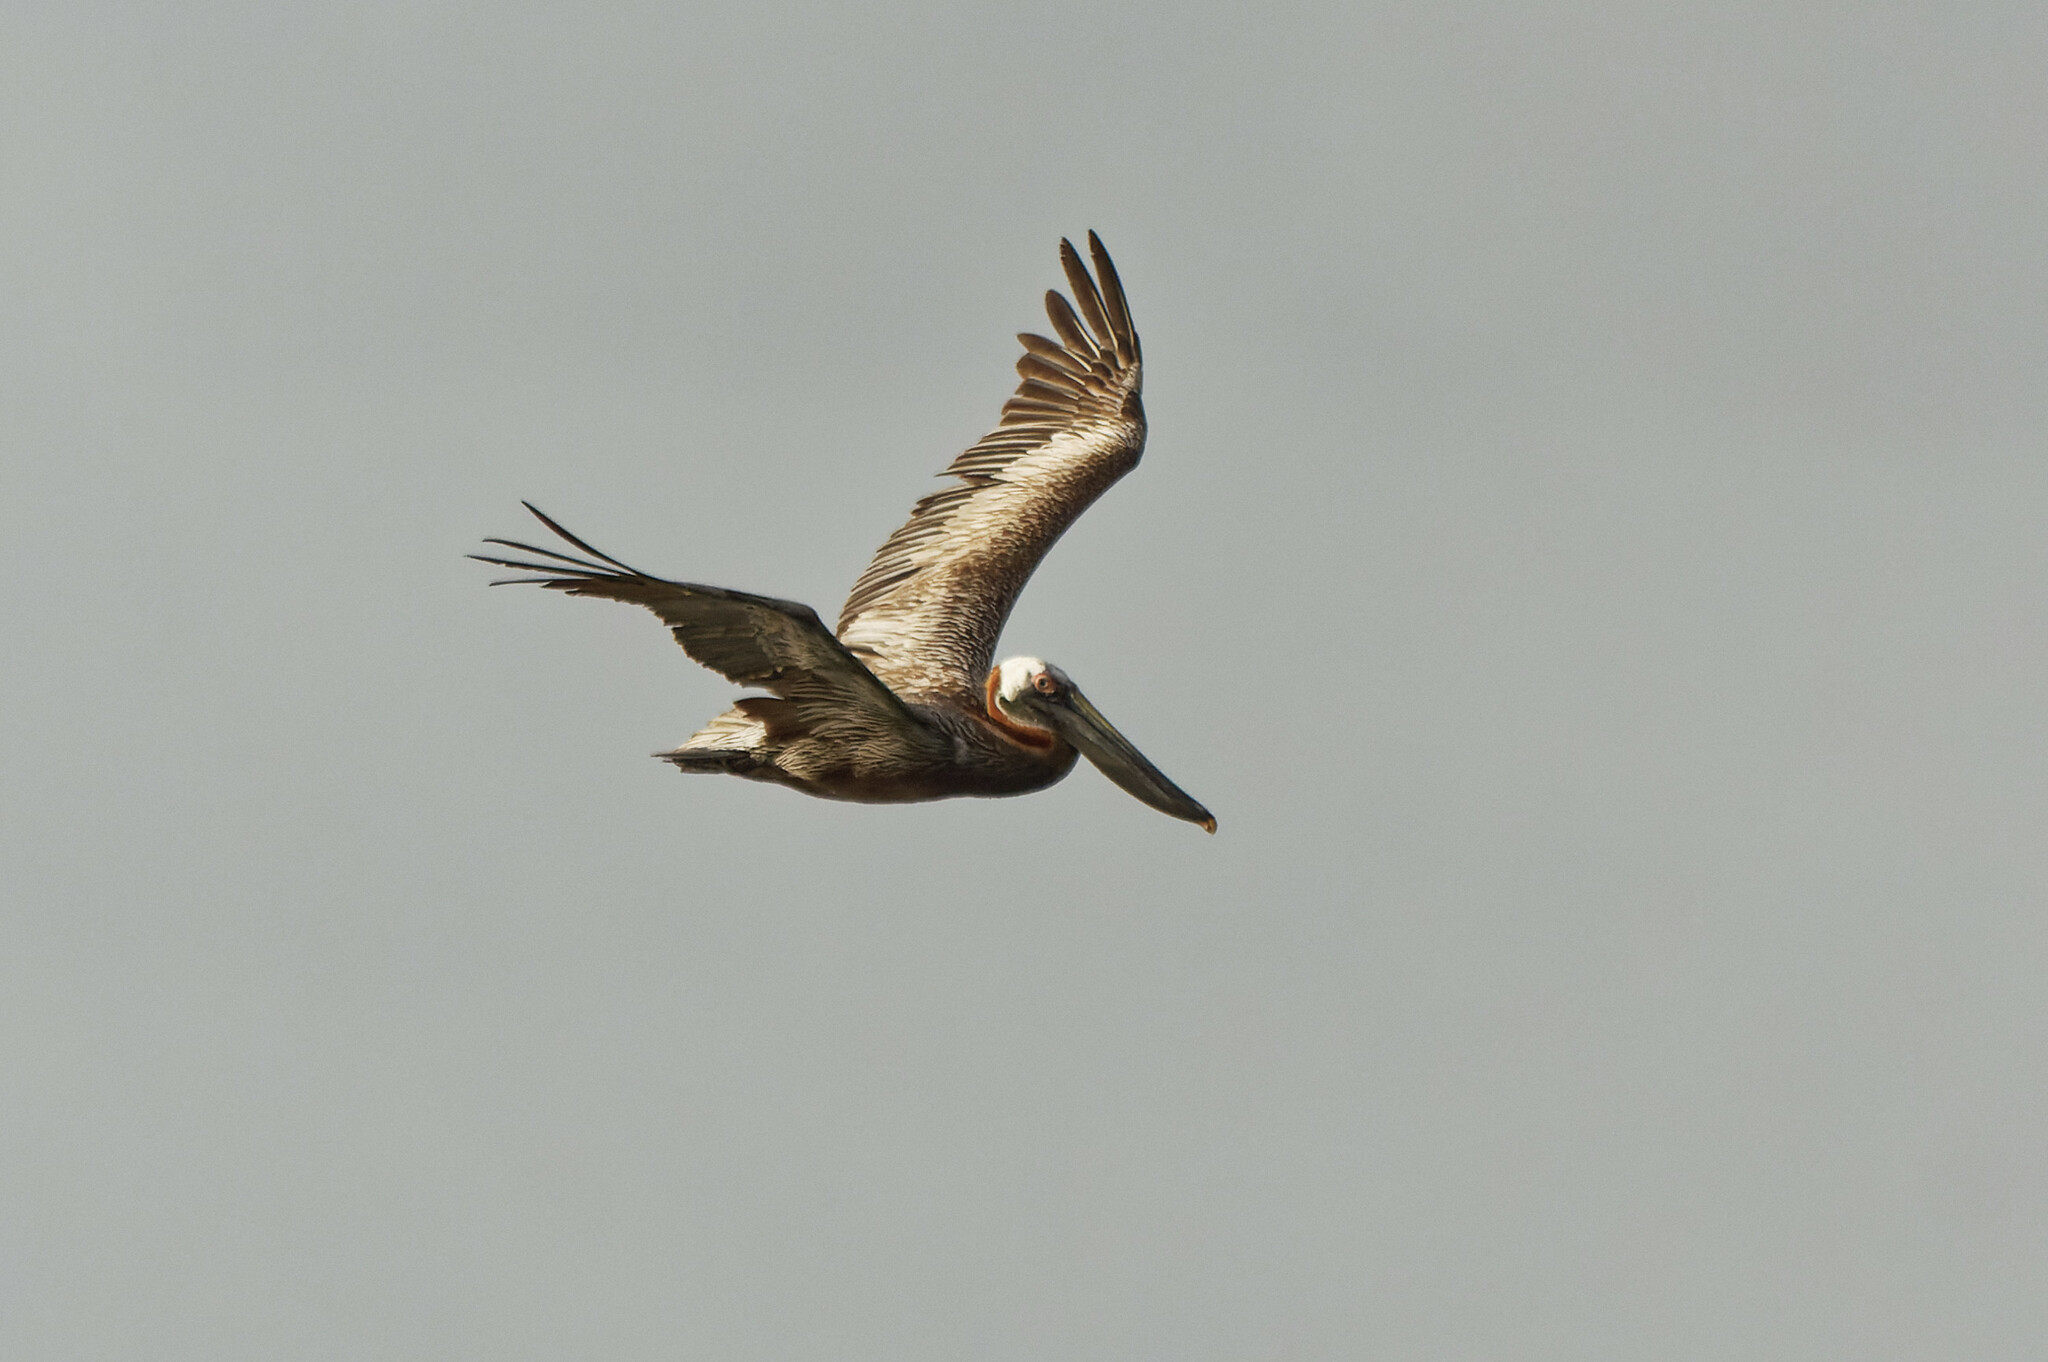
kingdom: Animalia
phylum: Chordata
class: Aves
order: Pelecaniformes
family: Pelecanidae
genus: Pelecanus
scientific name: Pelecanus occidentalis
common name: Brown pelican
